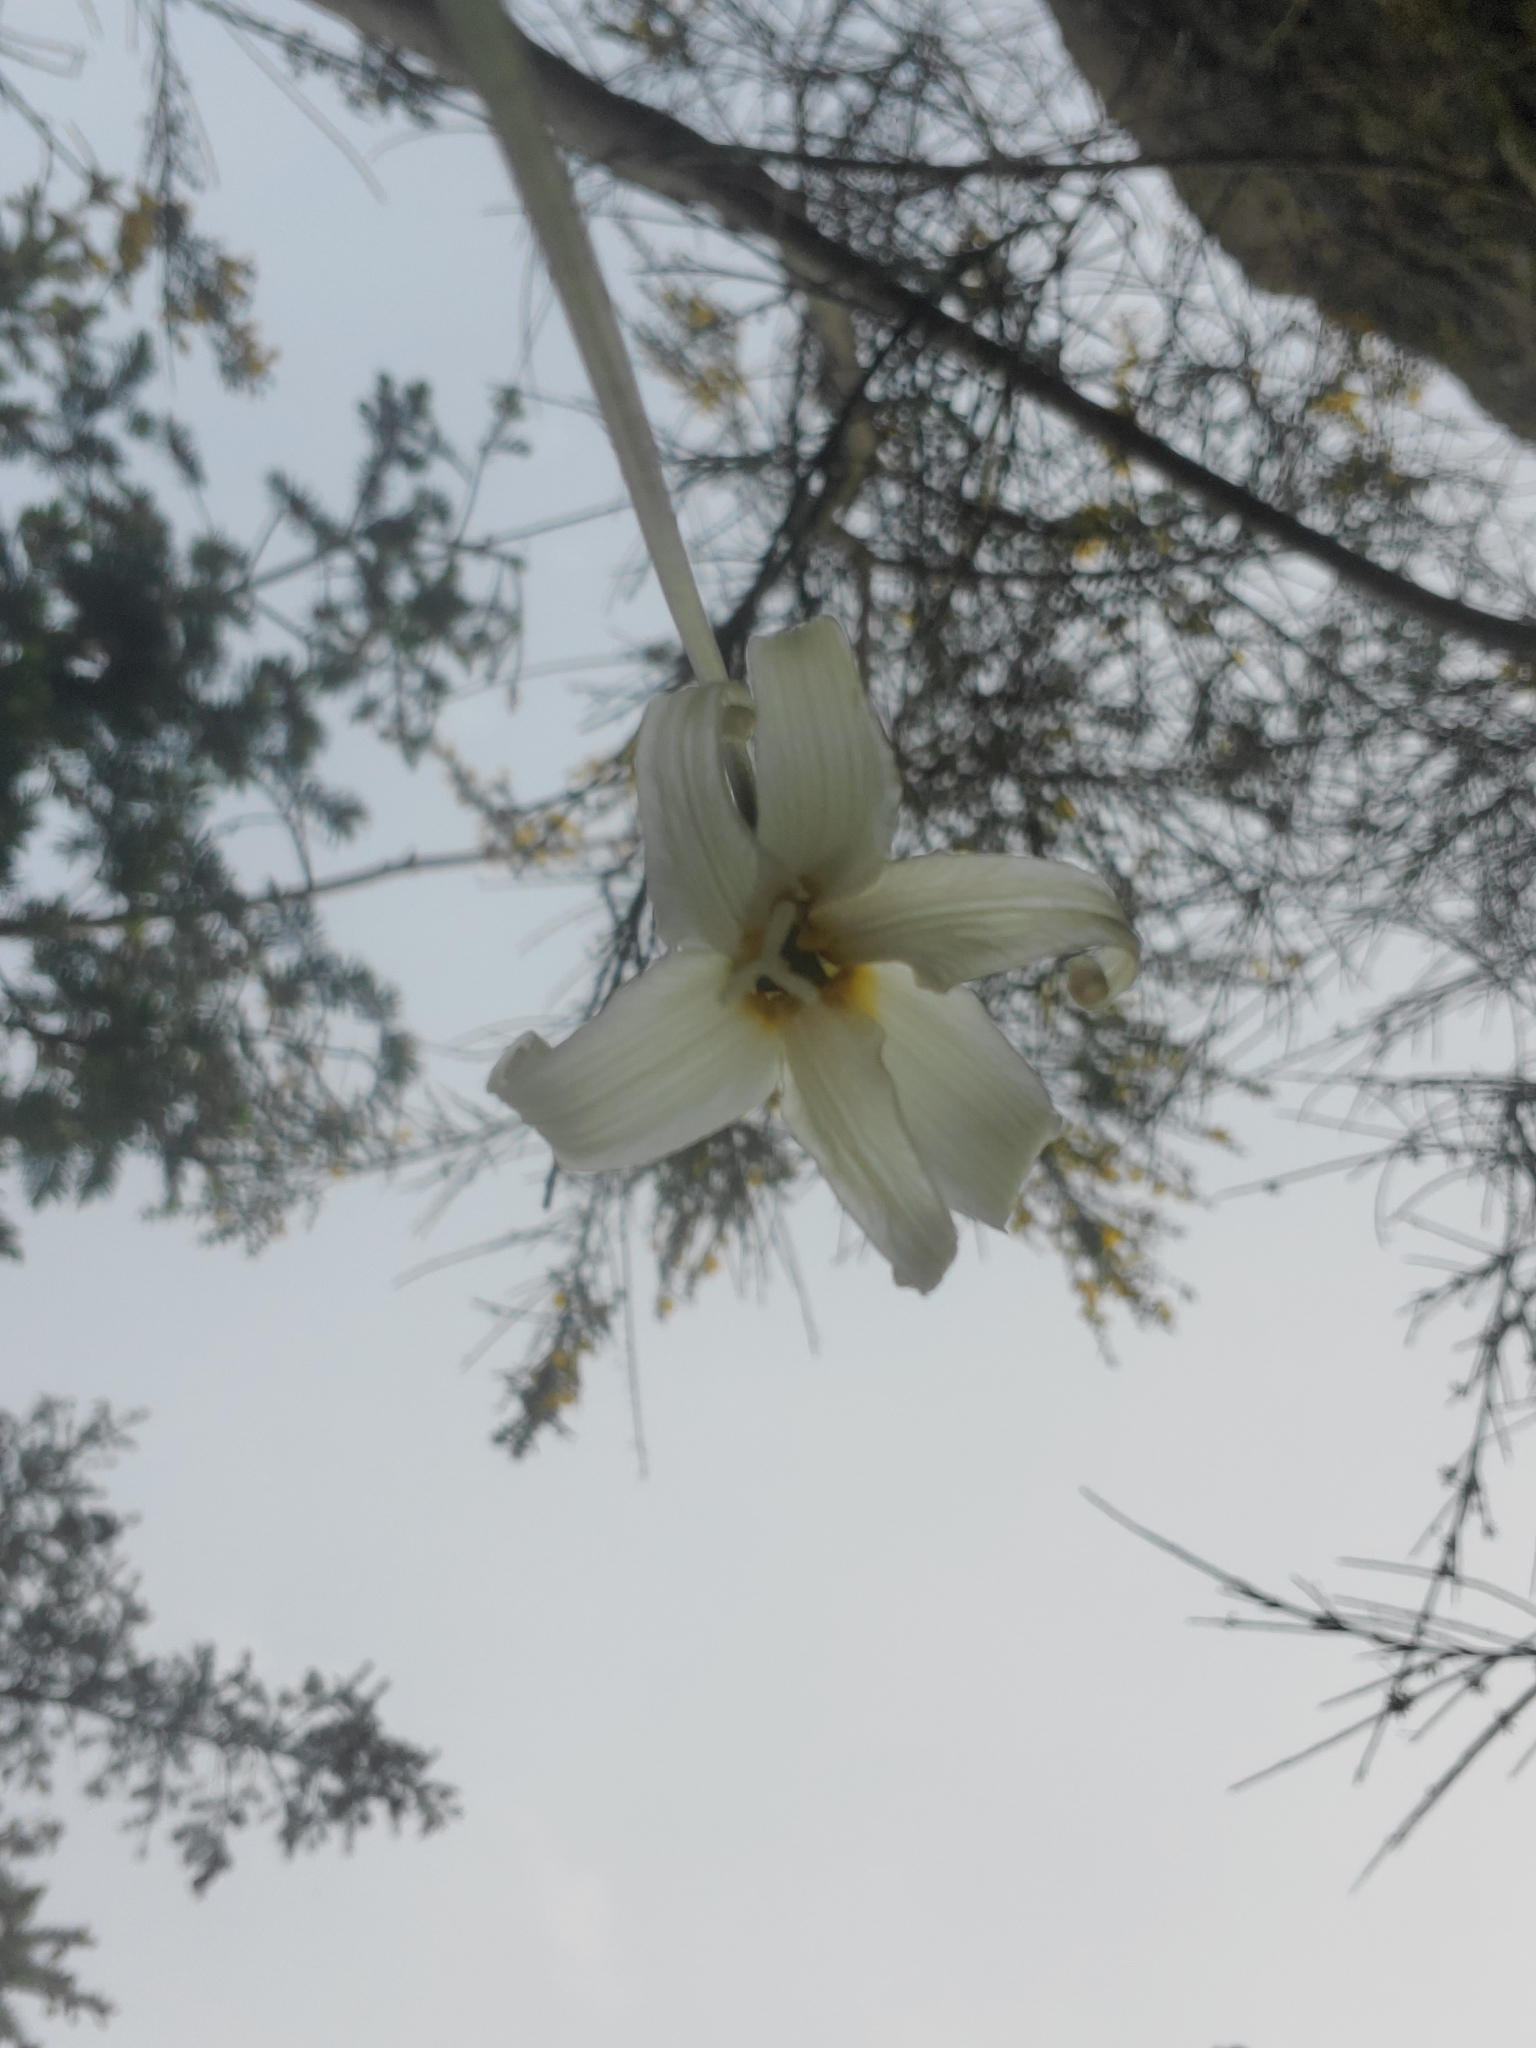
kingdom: Plantae
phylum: Tracheophyta
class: Liliopsida
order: Liliales
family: Liliaceae
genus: Erythronium
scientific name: Erythronium oregonum
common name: Giant adder's-tongue
